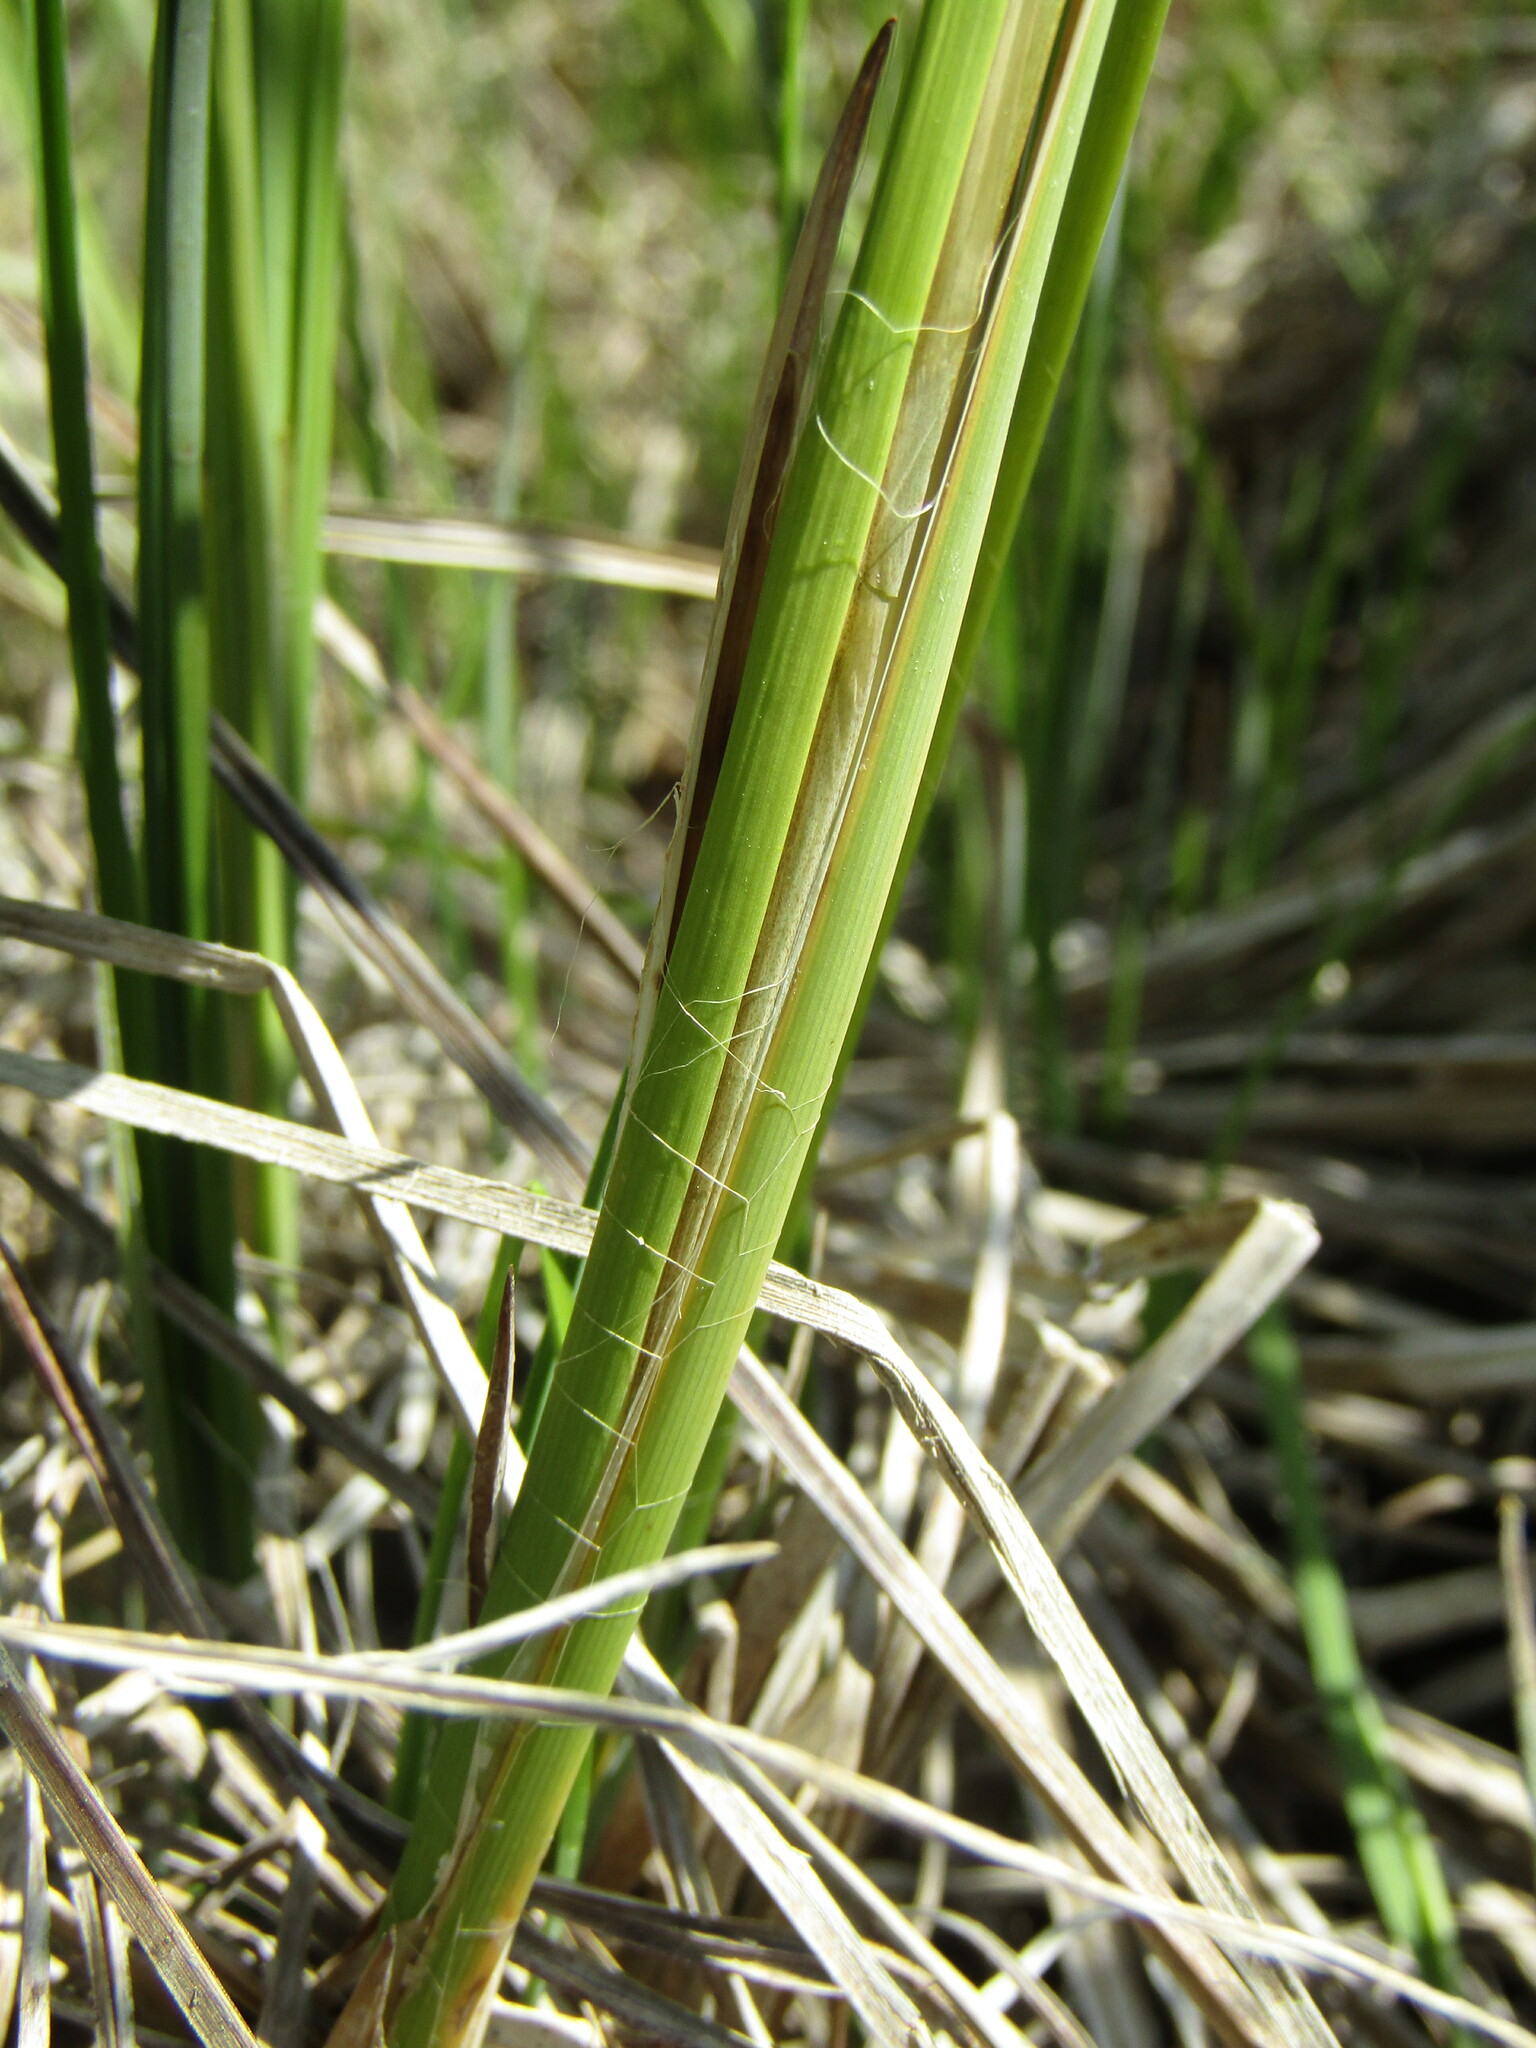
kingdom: Plantae
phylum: Tracheophyta
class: Liliopsida
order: Poales
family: Cyperaceae
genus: Carex
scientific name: Carex elata
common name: Tufted sedge
